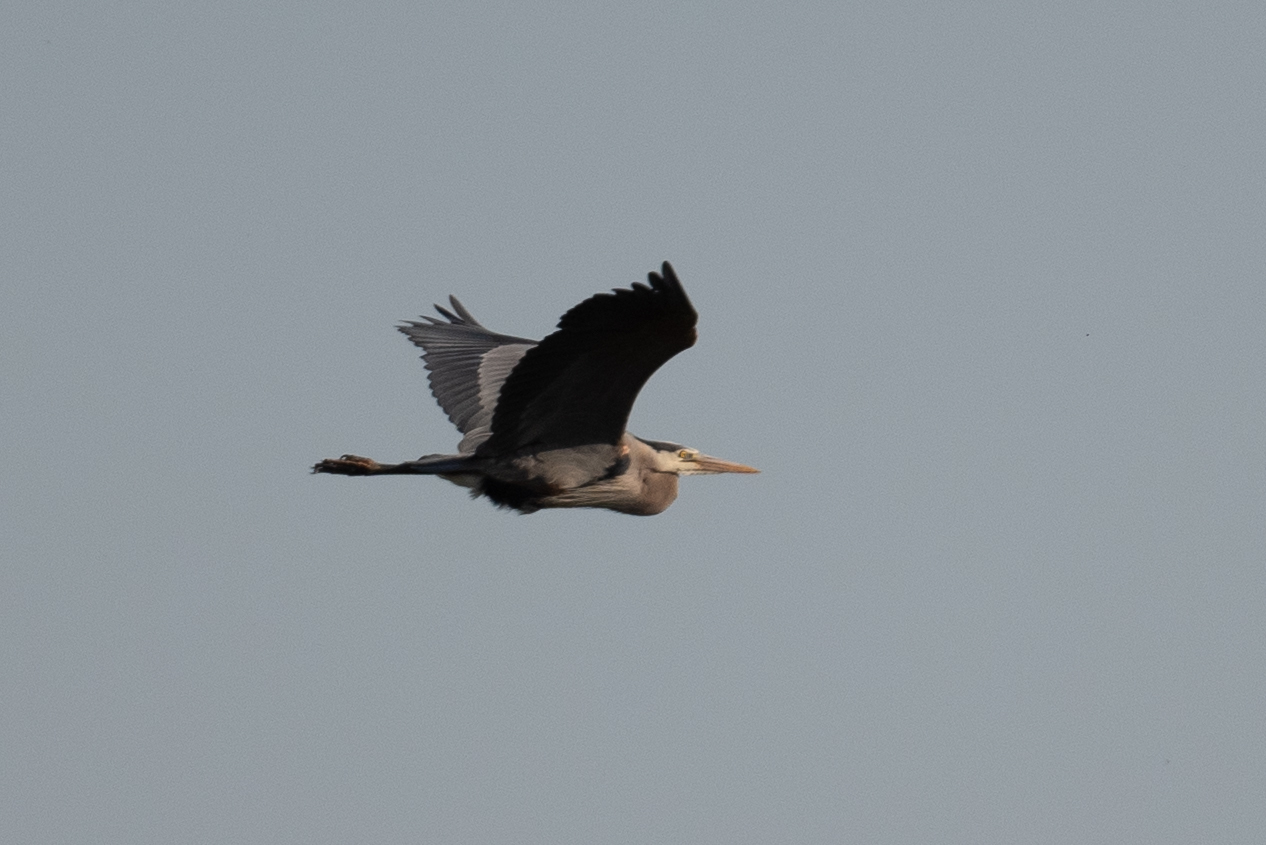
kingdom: Animalia
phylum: Chordata
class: Aves
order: Pelecaniformes
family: Ardeidae
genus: Ardea
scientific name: Ardea herodias
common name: Great blue heron
